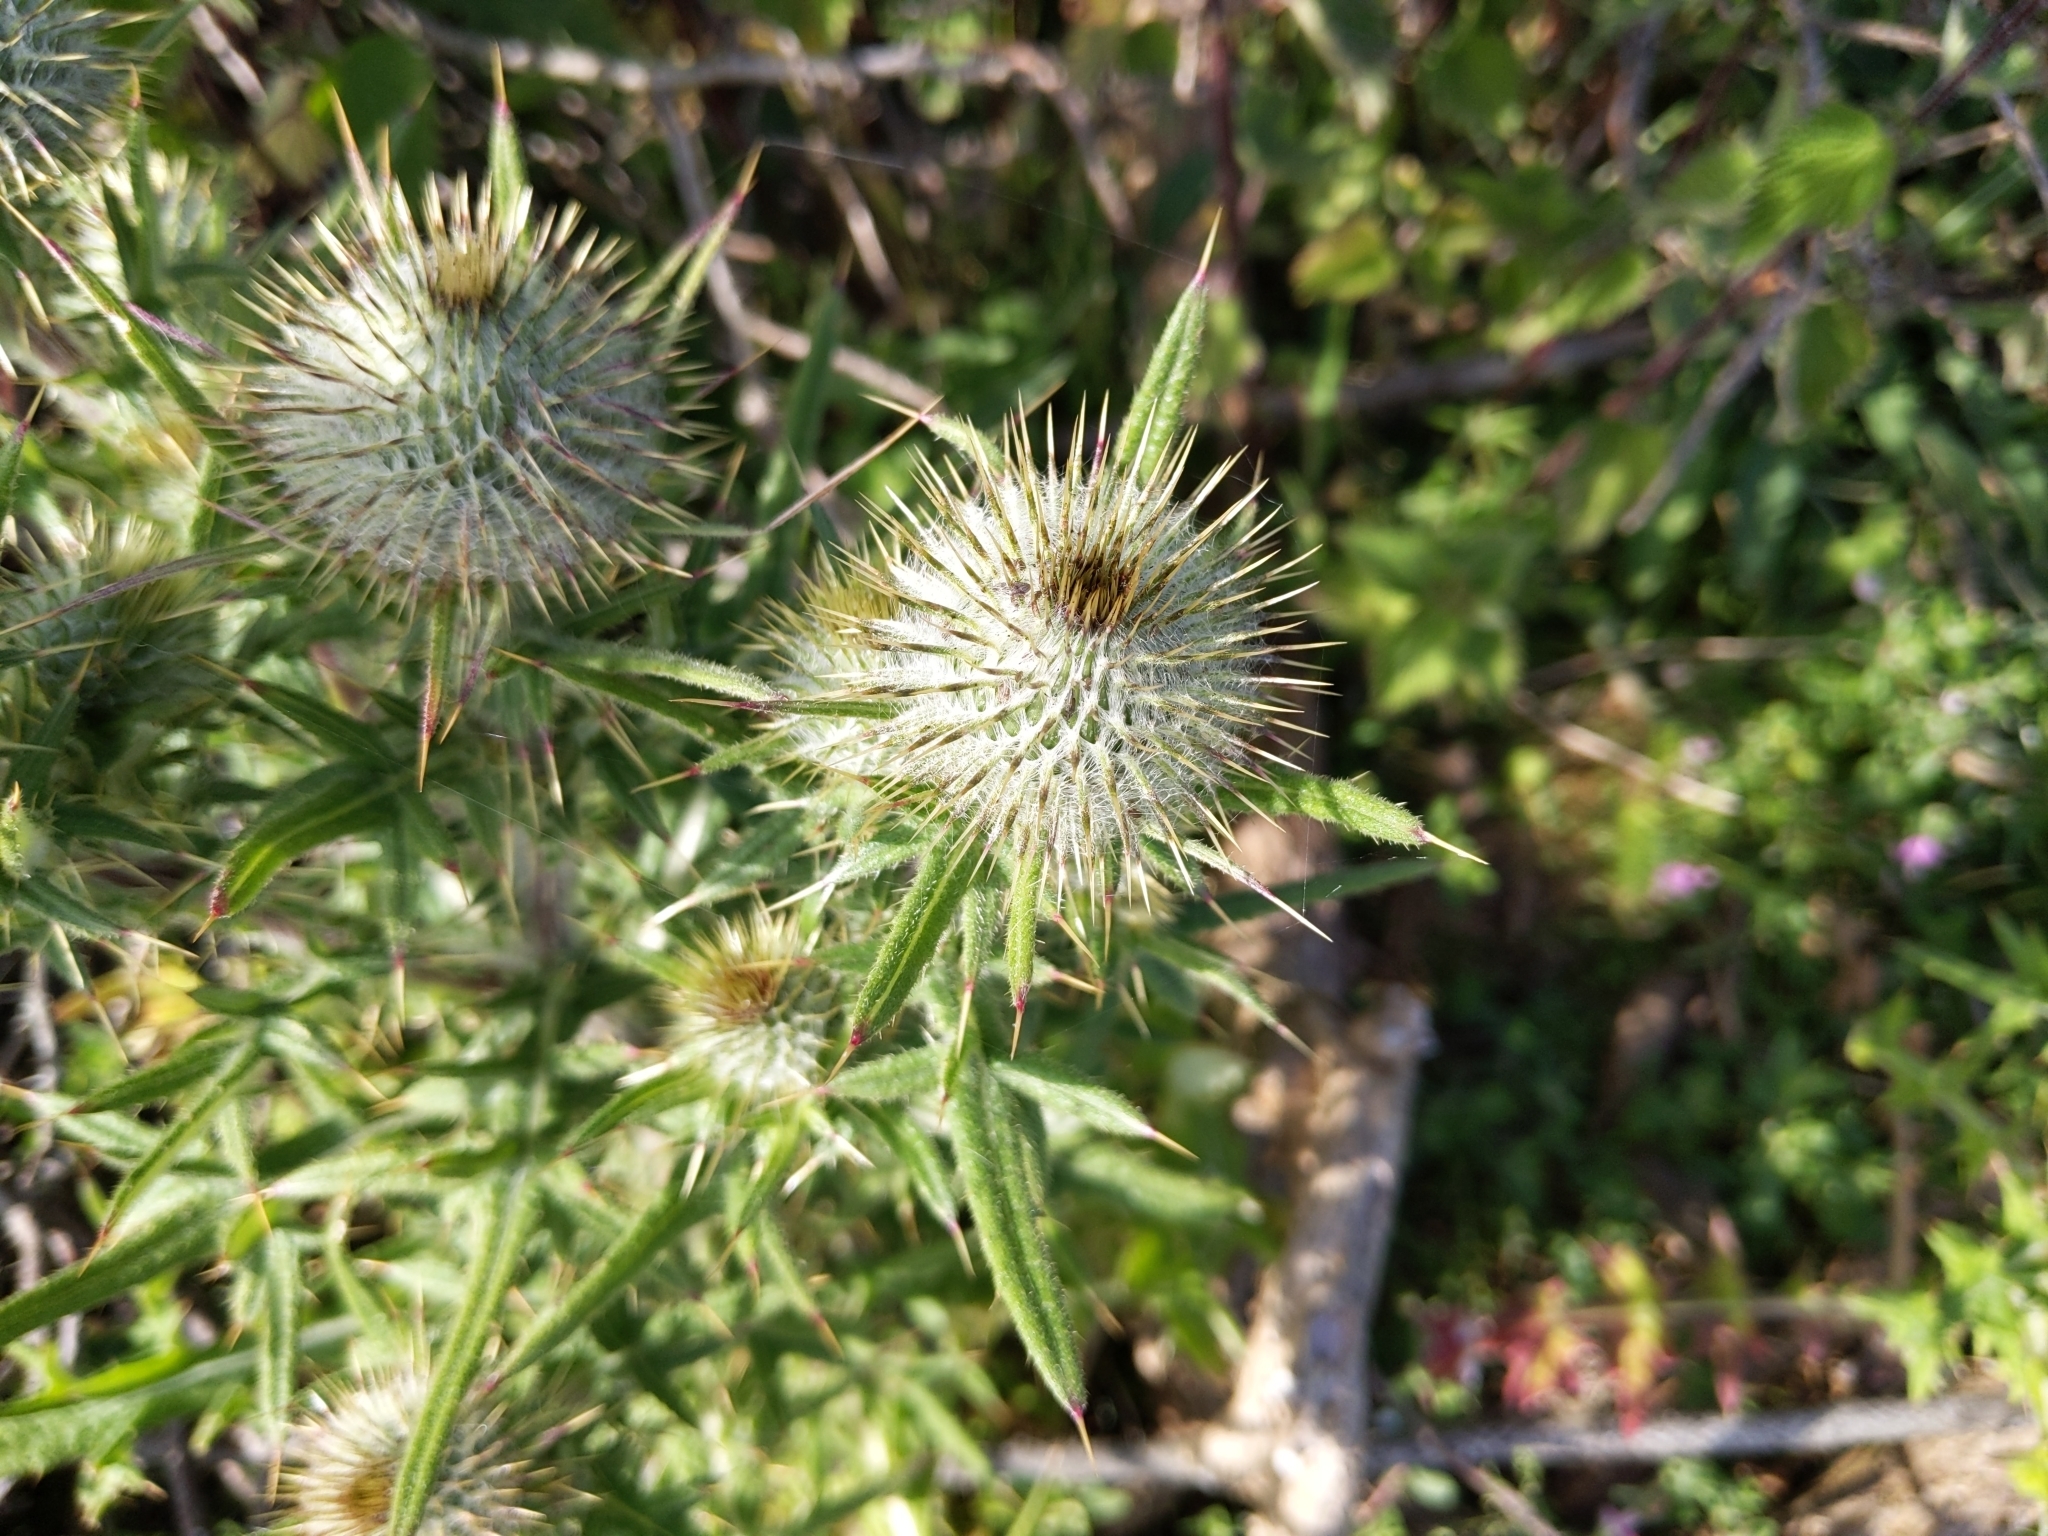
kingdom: Plantae
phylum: Tracheophyta
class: Magnoliopsida
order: Asterales
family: Asteraceae
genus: Cirsium
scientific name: Cirsium vulgare
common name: Bull thistle
